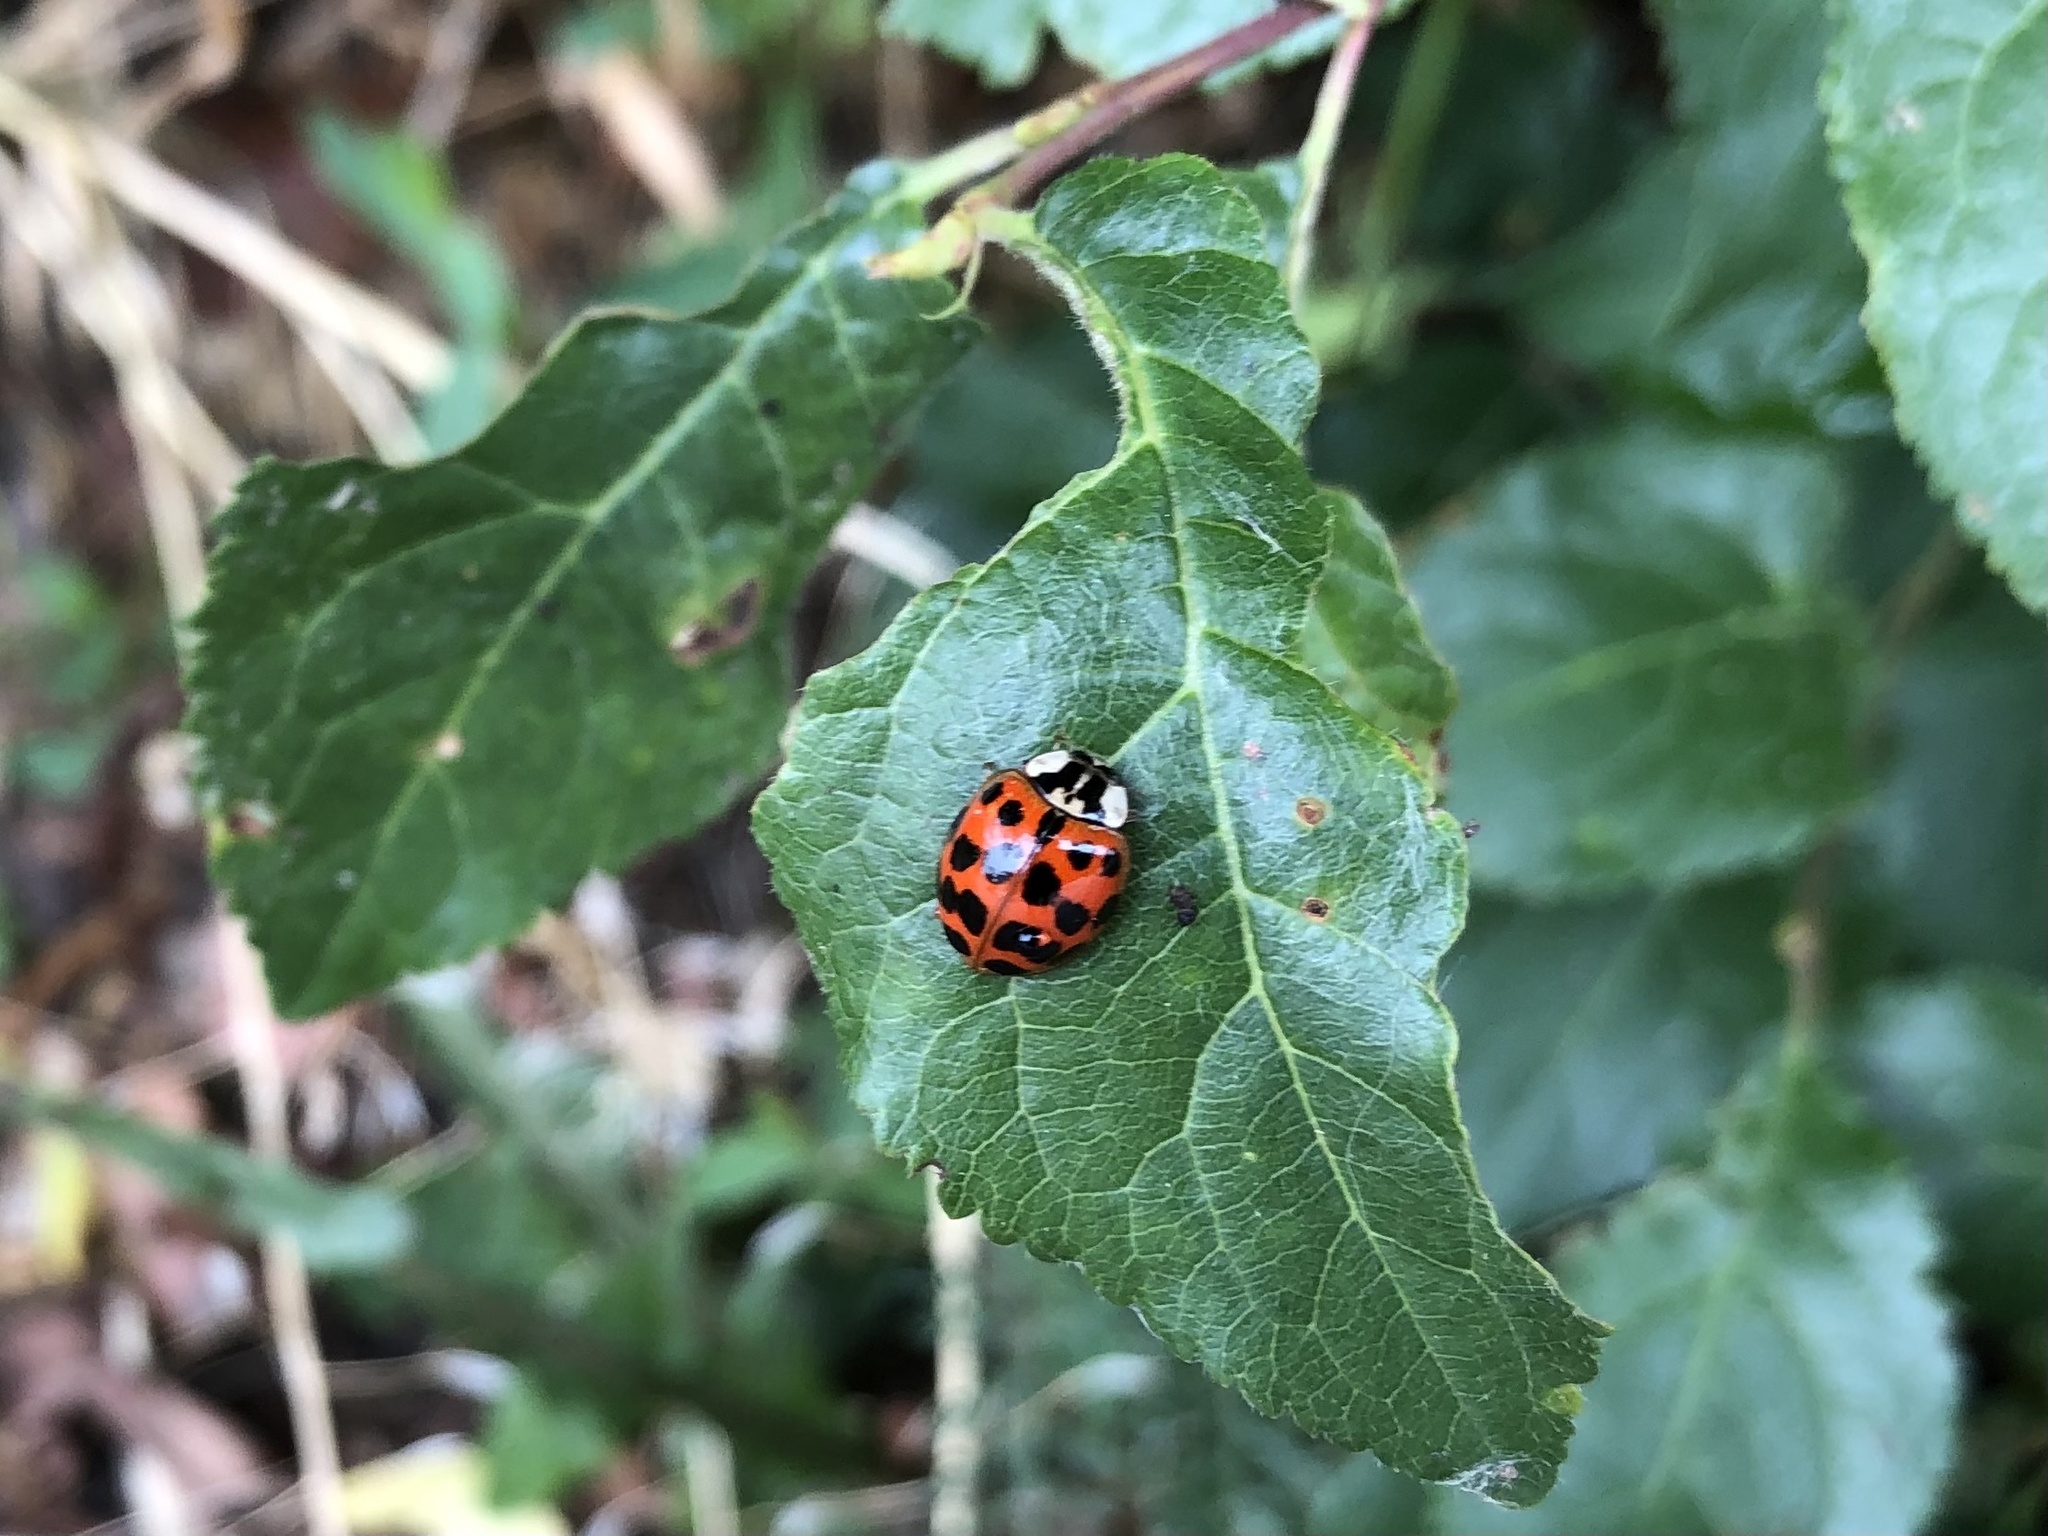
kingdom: Animalia
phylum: Arthropoda
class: Insecta
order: Coleoptera
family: Coccinellidae
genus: Harmonia
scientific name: Harmonia axyridis
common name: Harlequin ladybird
